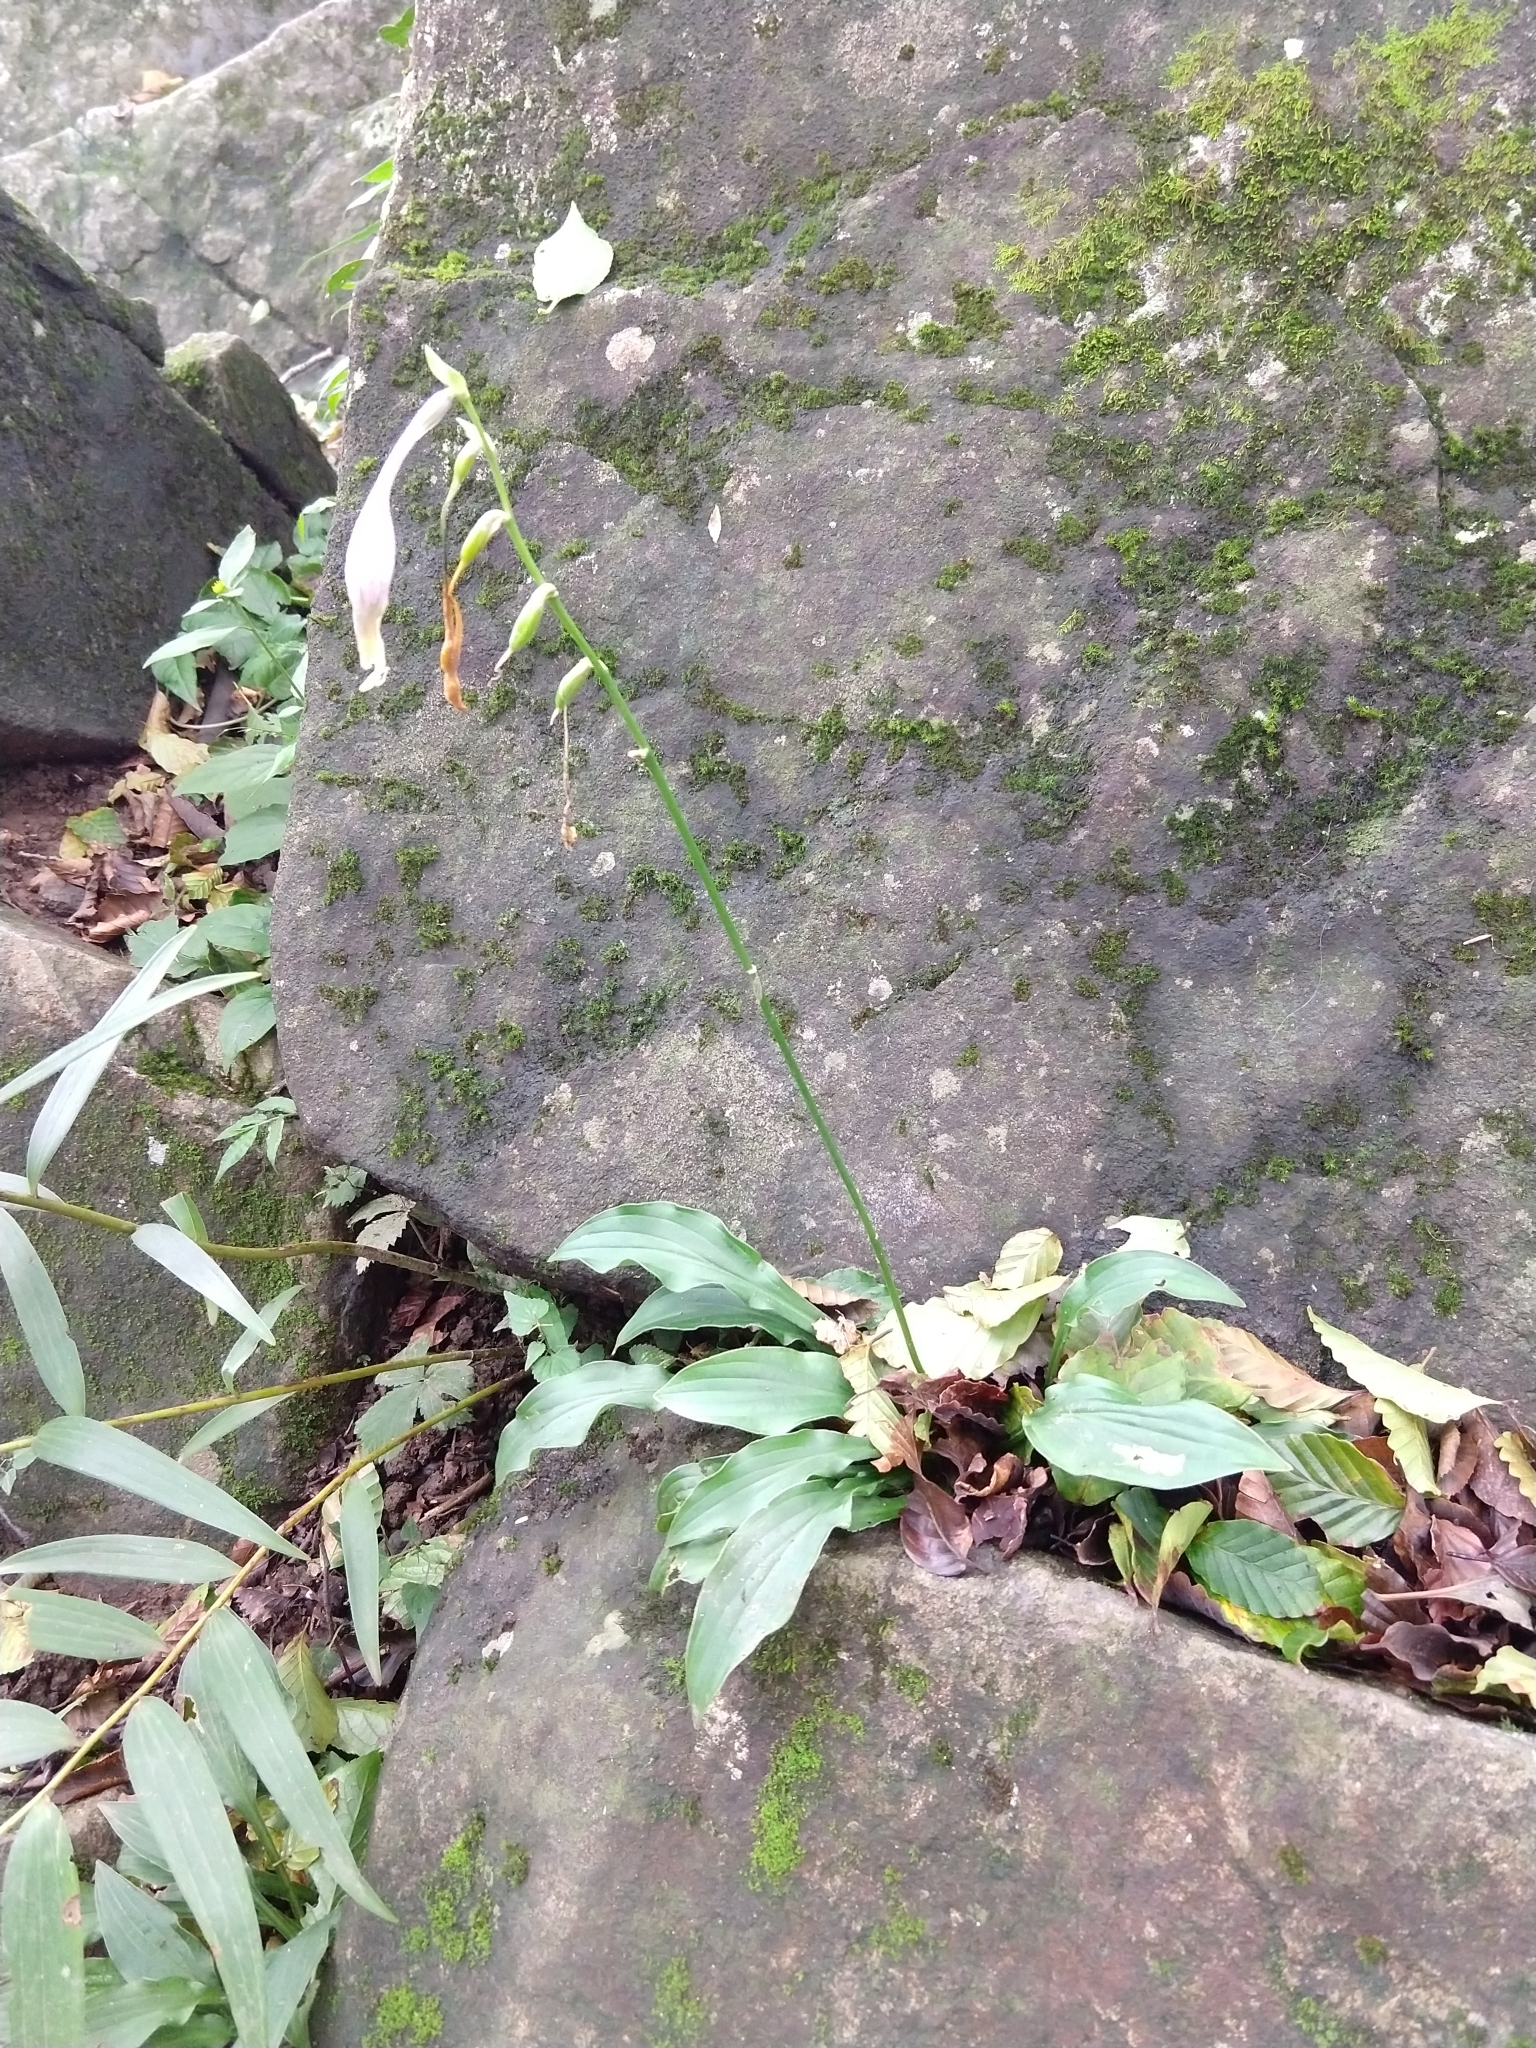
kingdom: Plantae
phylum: Tracheophyta
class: Liliopsida
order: Asparagales
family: Asparagaceae
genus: Hosta
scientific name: Hosta sieboldii
